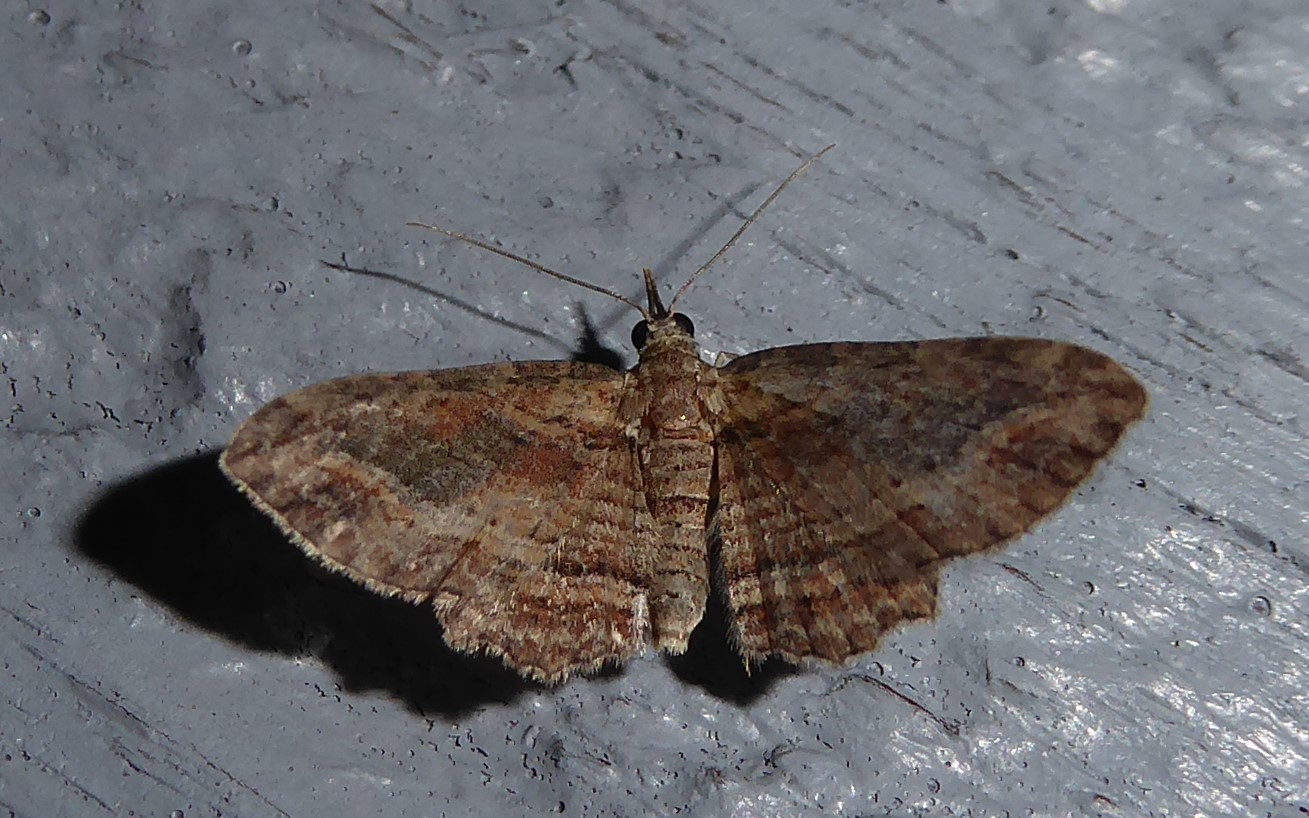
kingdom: Animalia
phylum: Arthropoda
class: Insecta
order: Lepidoptera
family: Geometridae
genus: Chloroclystis
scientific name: Chloroclystis filata
